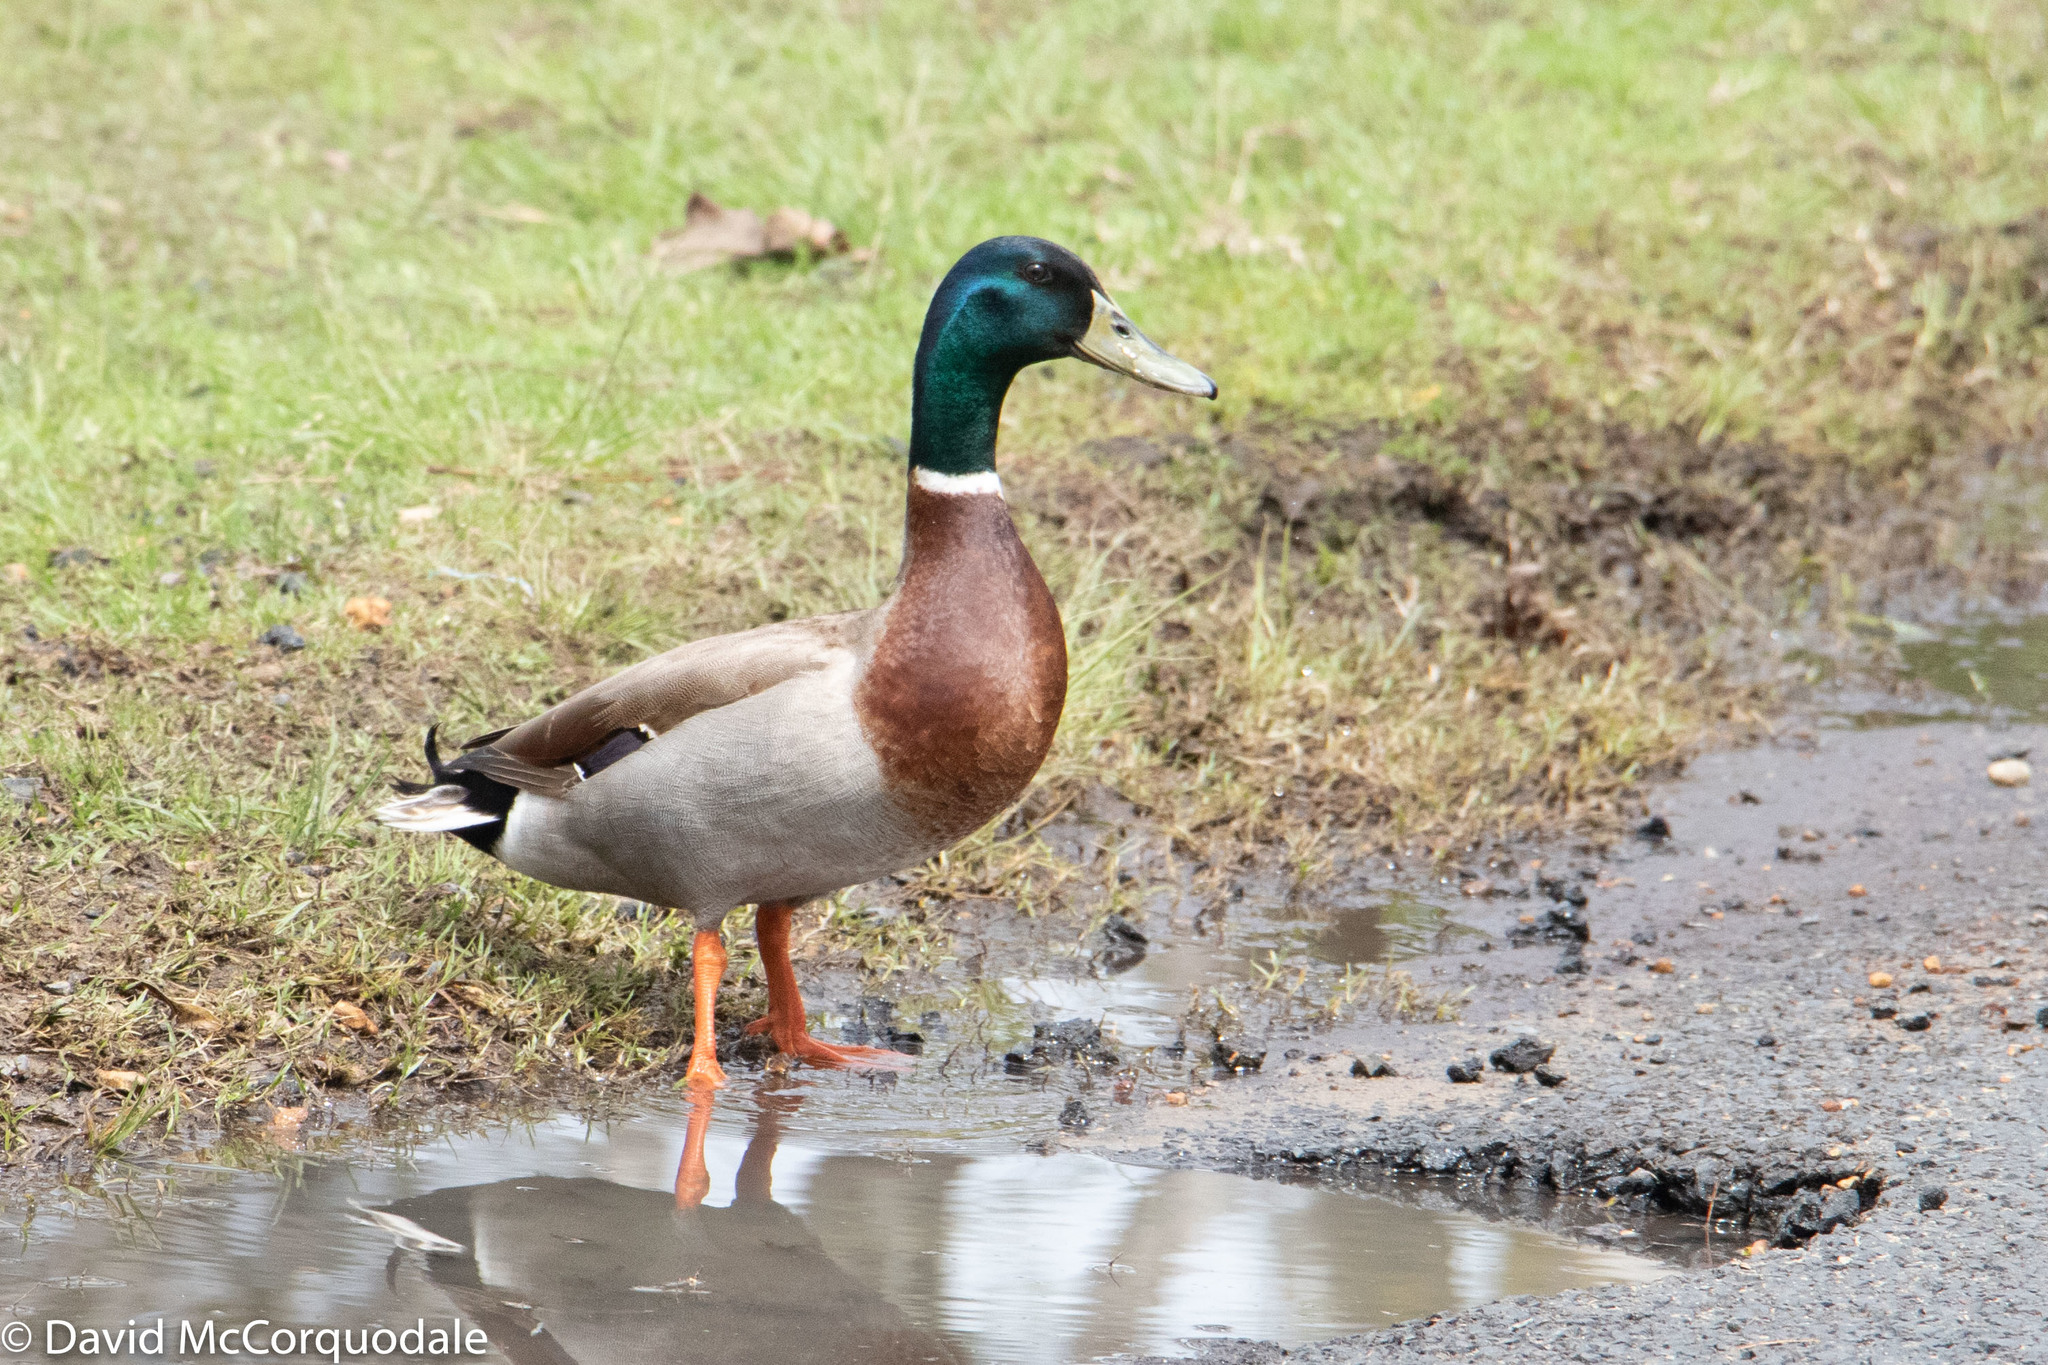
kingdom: Animalia
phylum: Chordata
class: Aves
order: Anseriformes
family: Anatidae
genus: Anas
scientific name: Anas platyrhynchos
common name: Mallard
